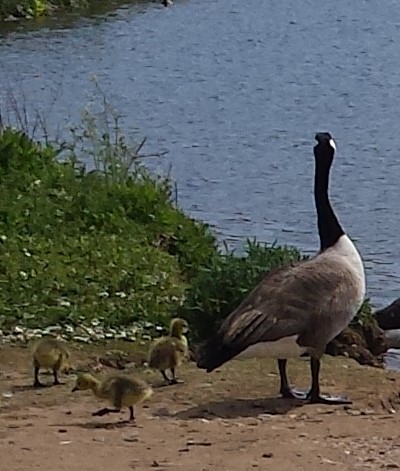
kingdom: Animalia
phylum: Chordata
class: Aves
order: Anseriformes
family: Anatidae
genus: Branta
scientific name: Branta canadensis
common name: Canada goose
